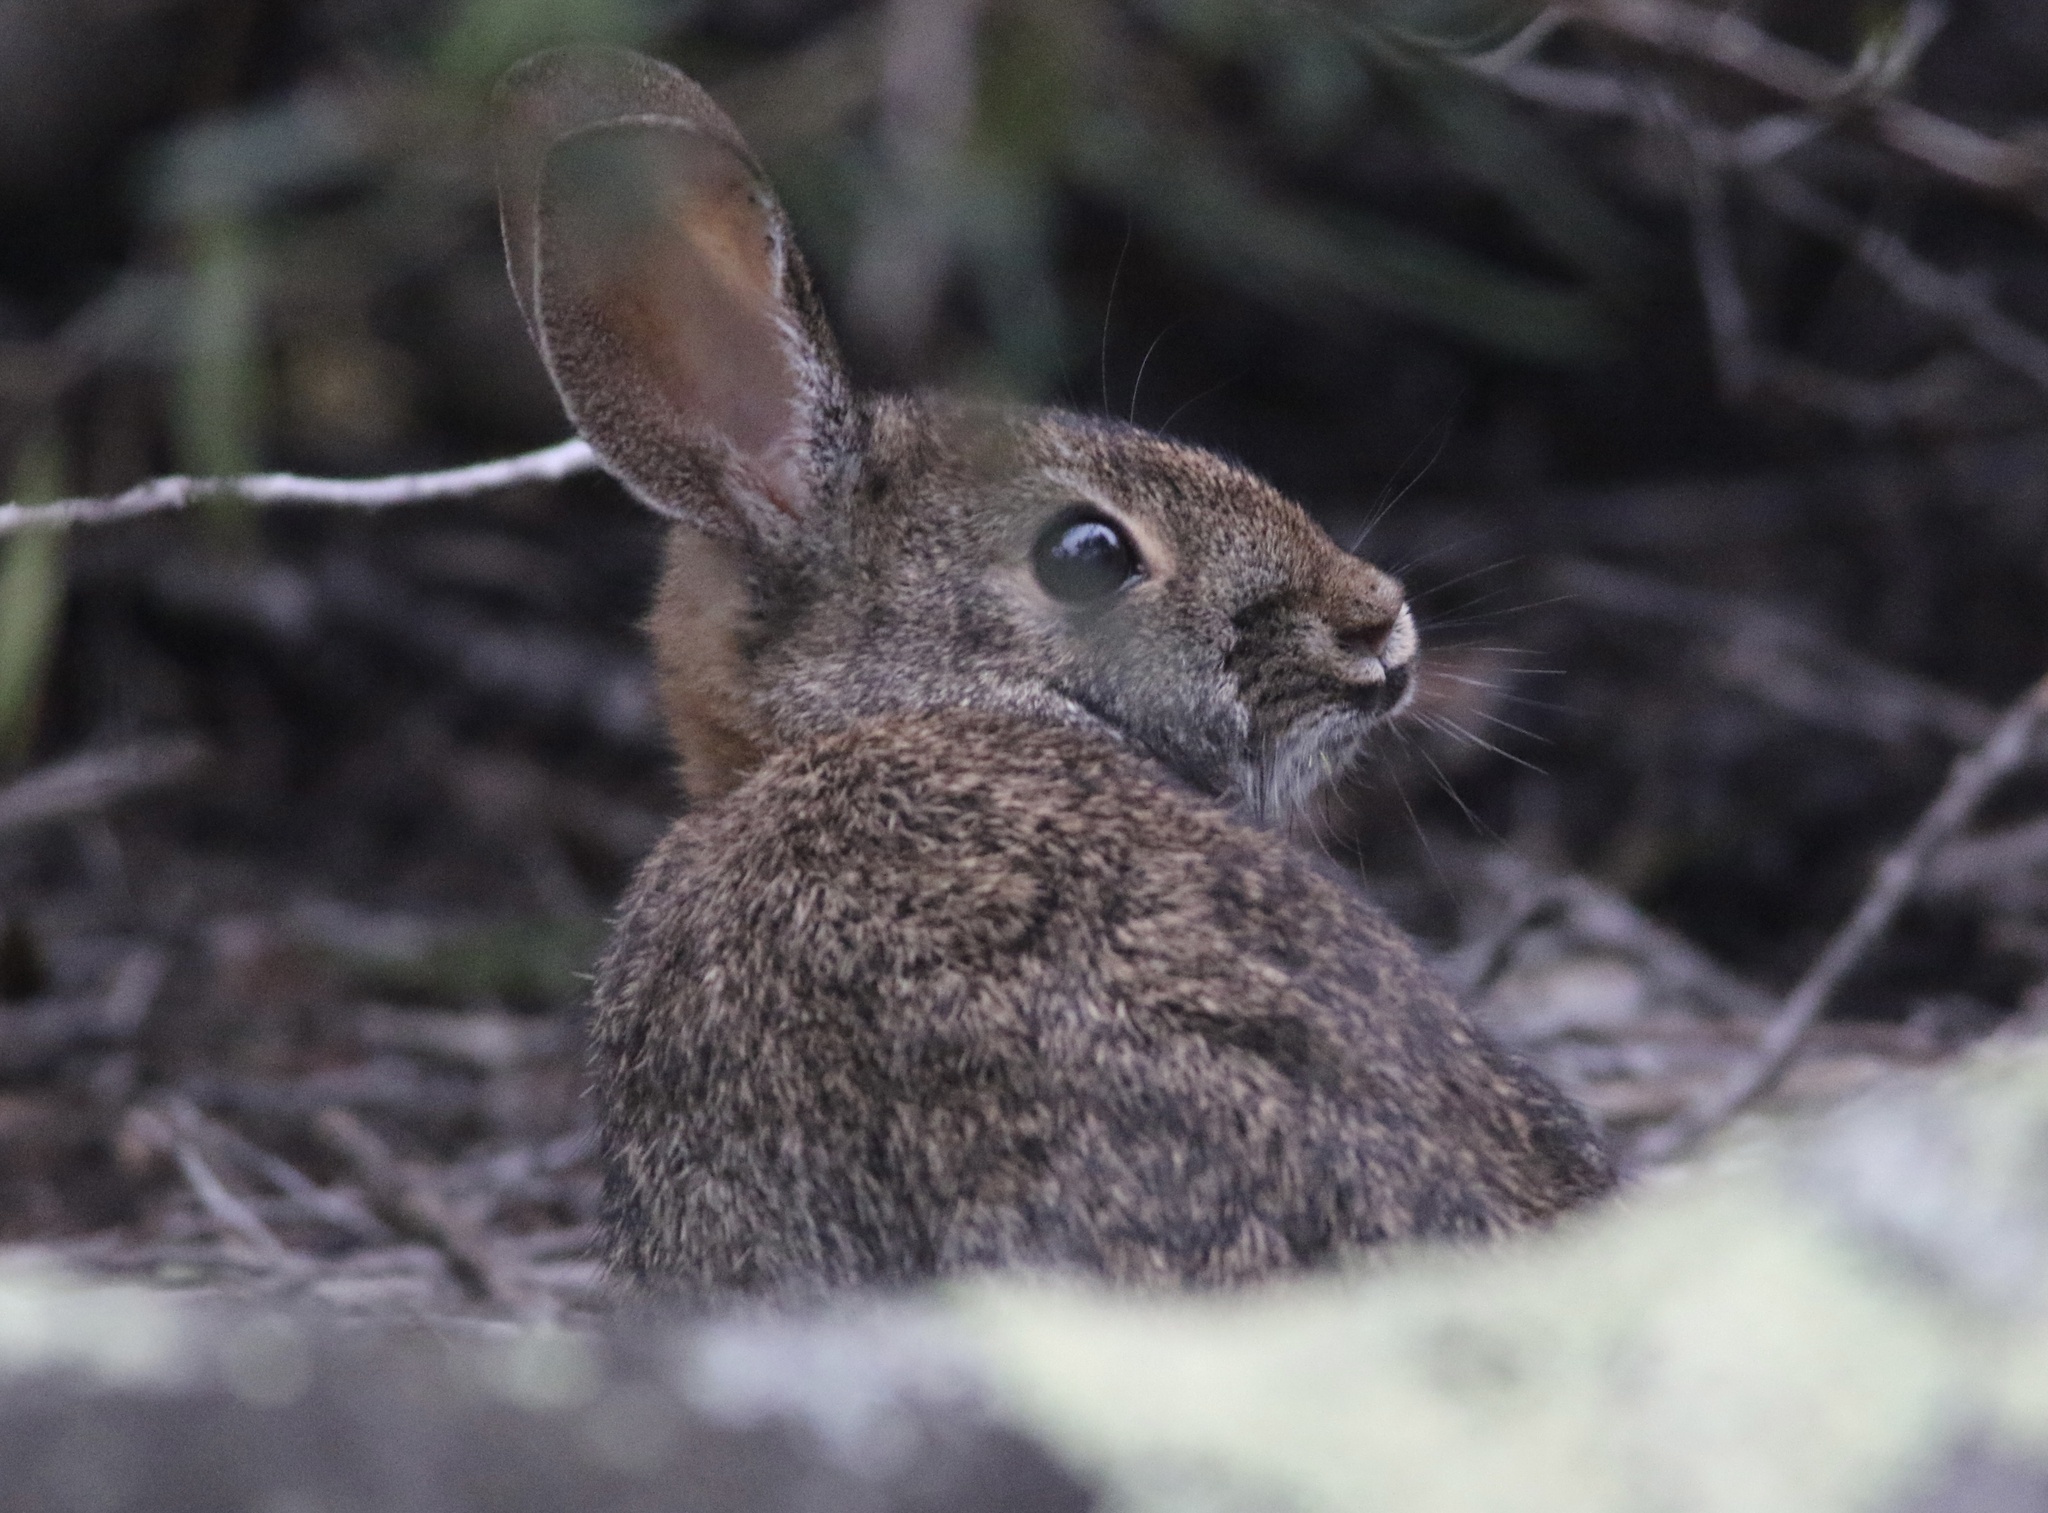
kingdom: Animalia
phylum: Chordata
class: Mammalia
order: Lagomorpha
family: Leporidae
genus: Sylvilagus
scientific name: Sylvilagus bachmani
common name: Brush rabbit
